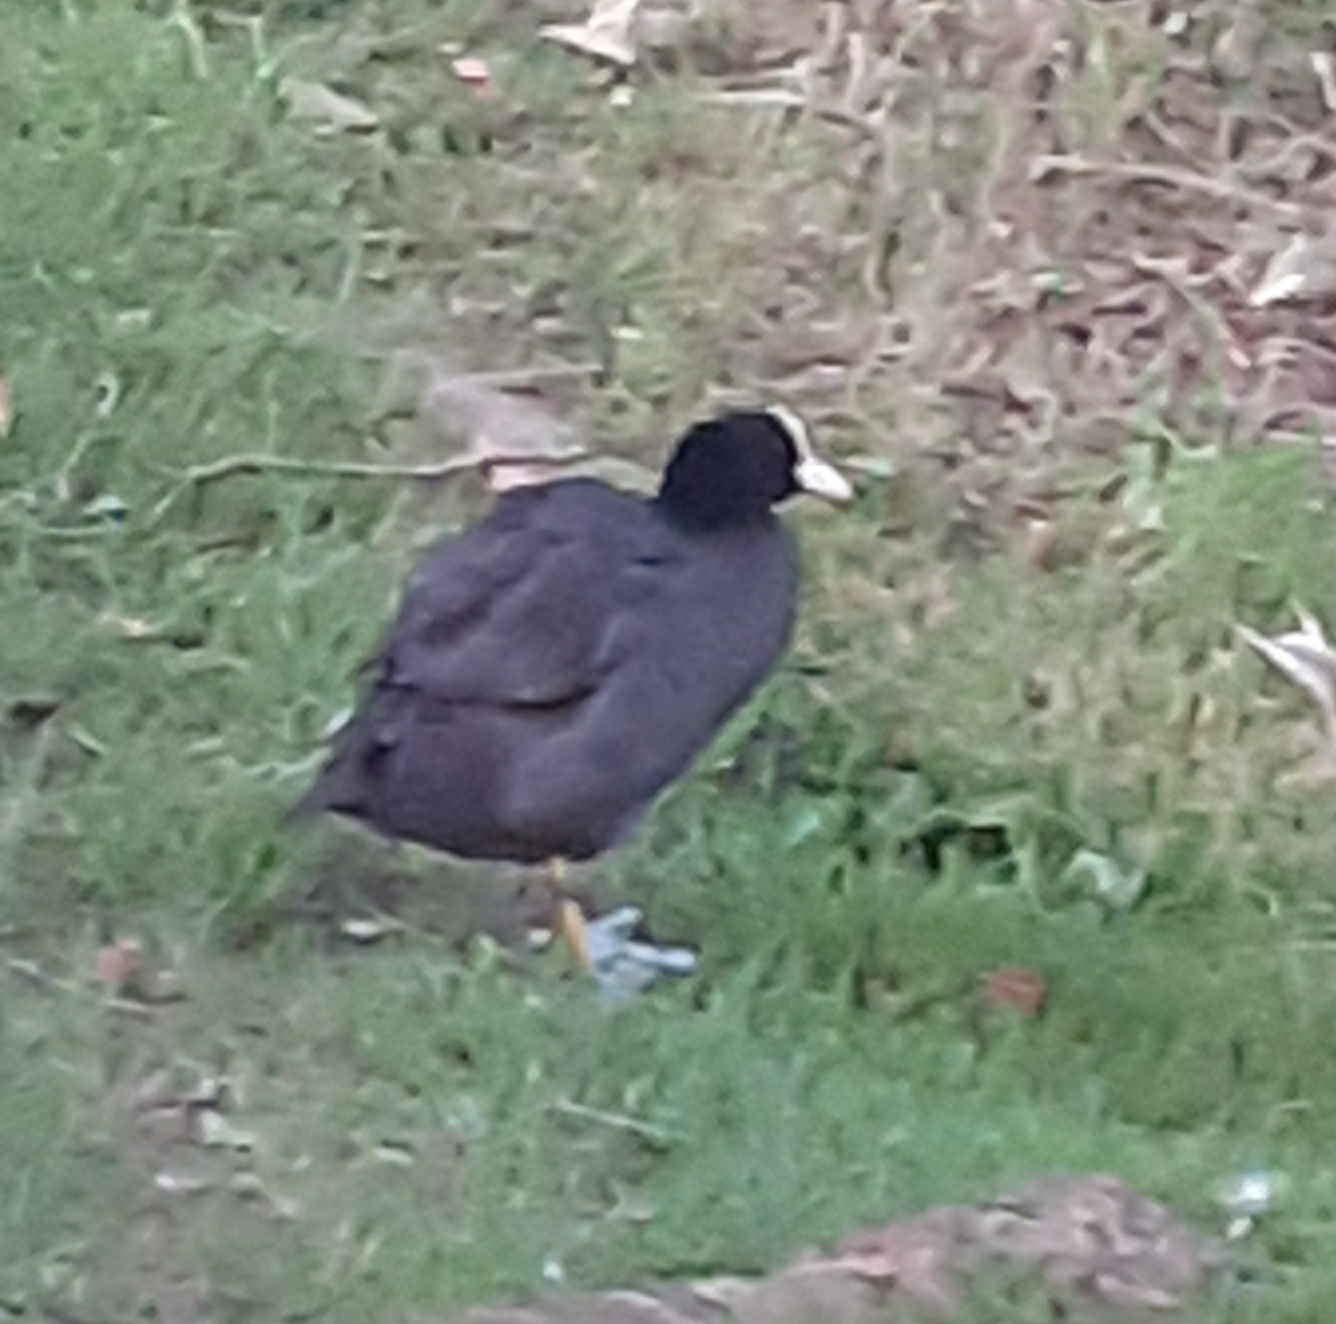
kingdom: Animalia
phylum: Chordata
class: Aves
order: Gruiformes
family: Rallidae
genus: Fulica
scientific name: Fulica atra
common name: Eurasian coot
